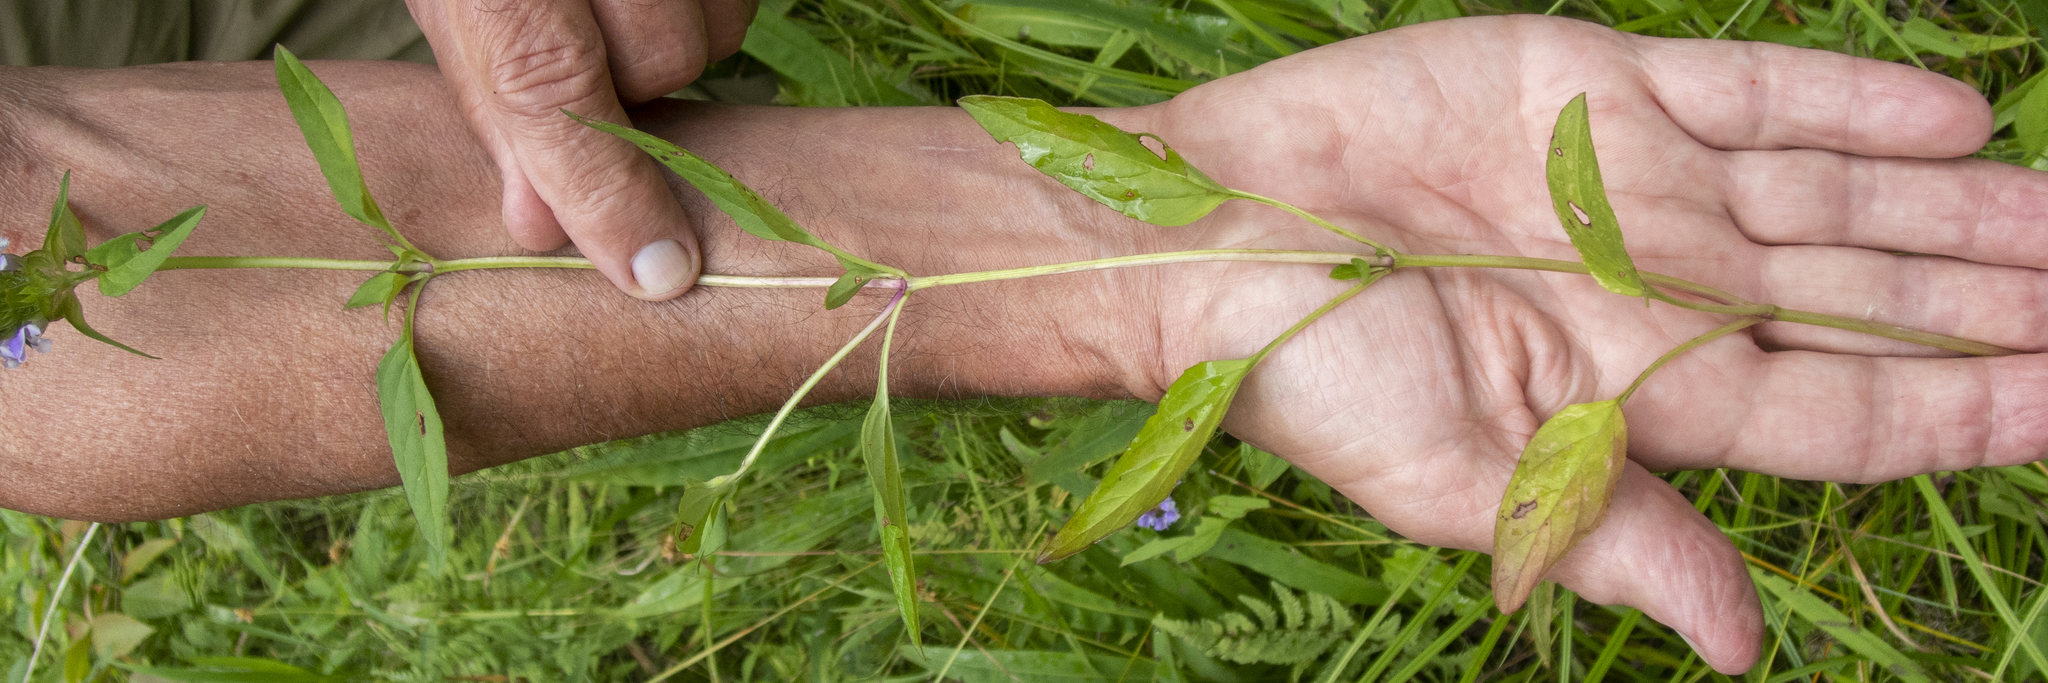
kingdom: Plantae
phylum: Tracheophyta
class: Magnoliopsida
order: Lamiales
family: Lamiaceae
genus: Prunella
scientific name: Prunella vulgaris
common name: Heal-all
